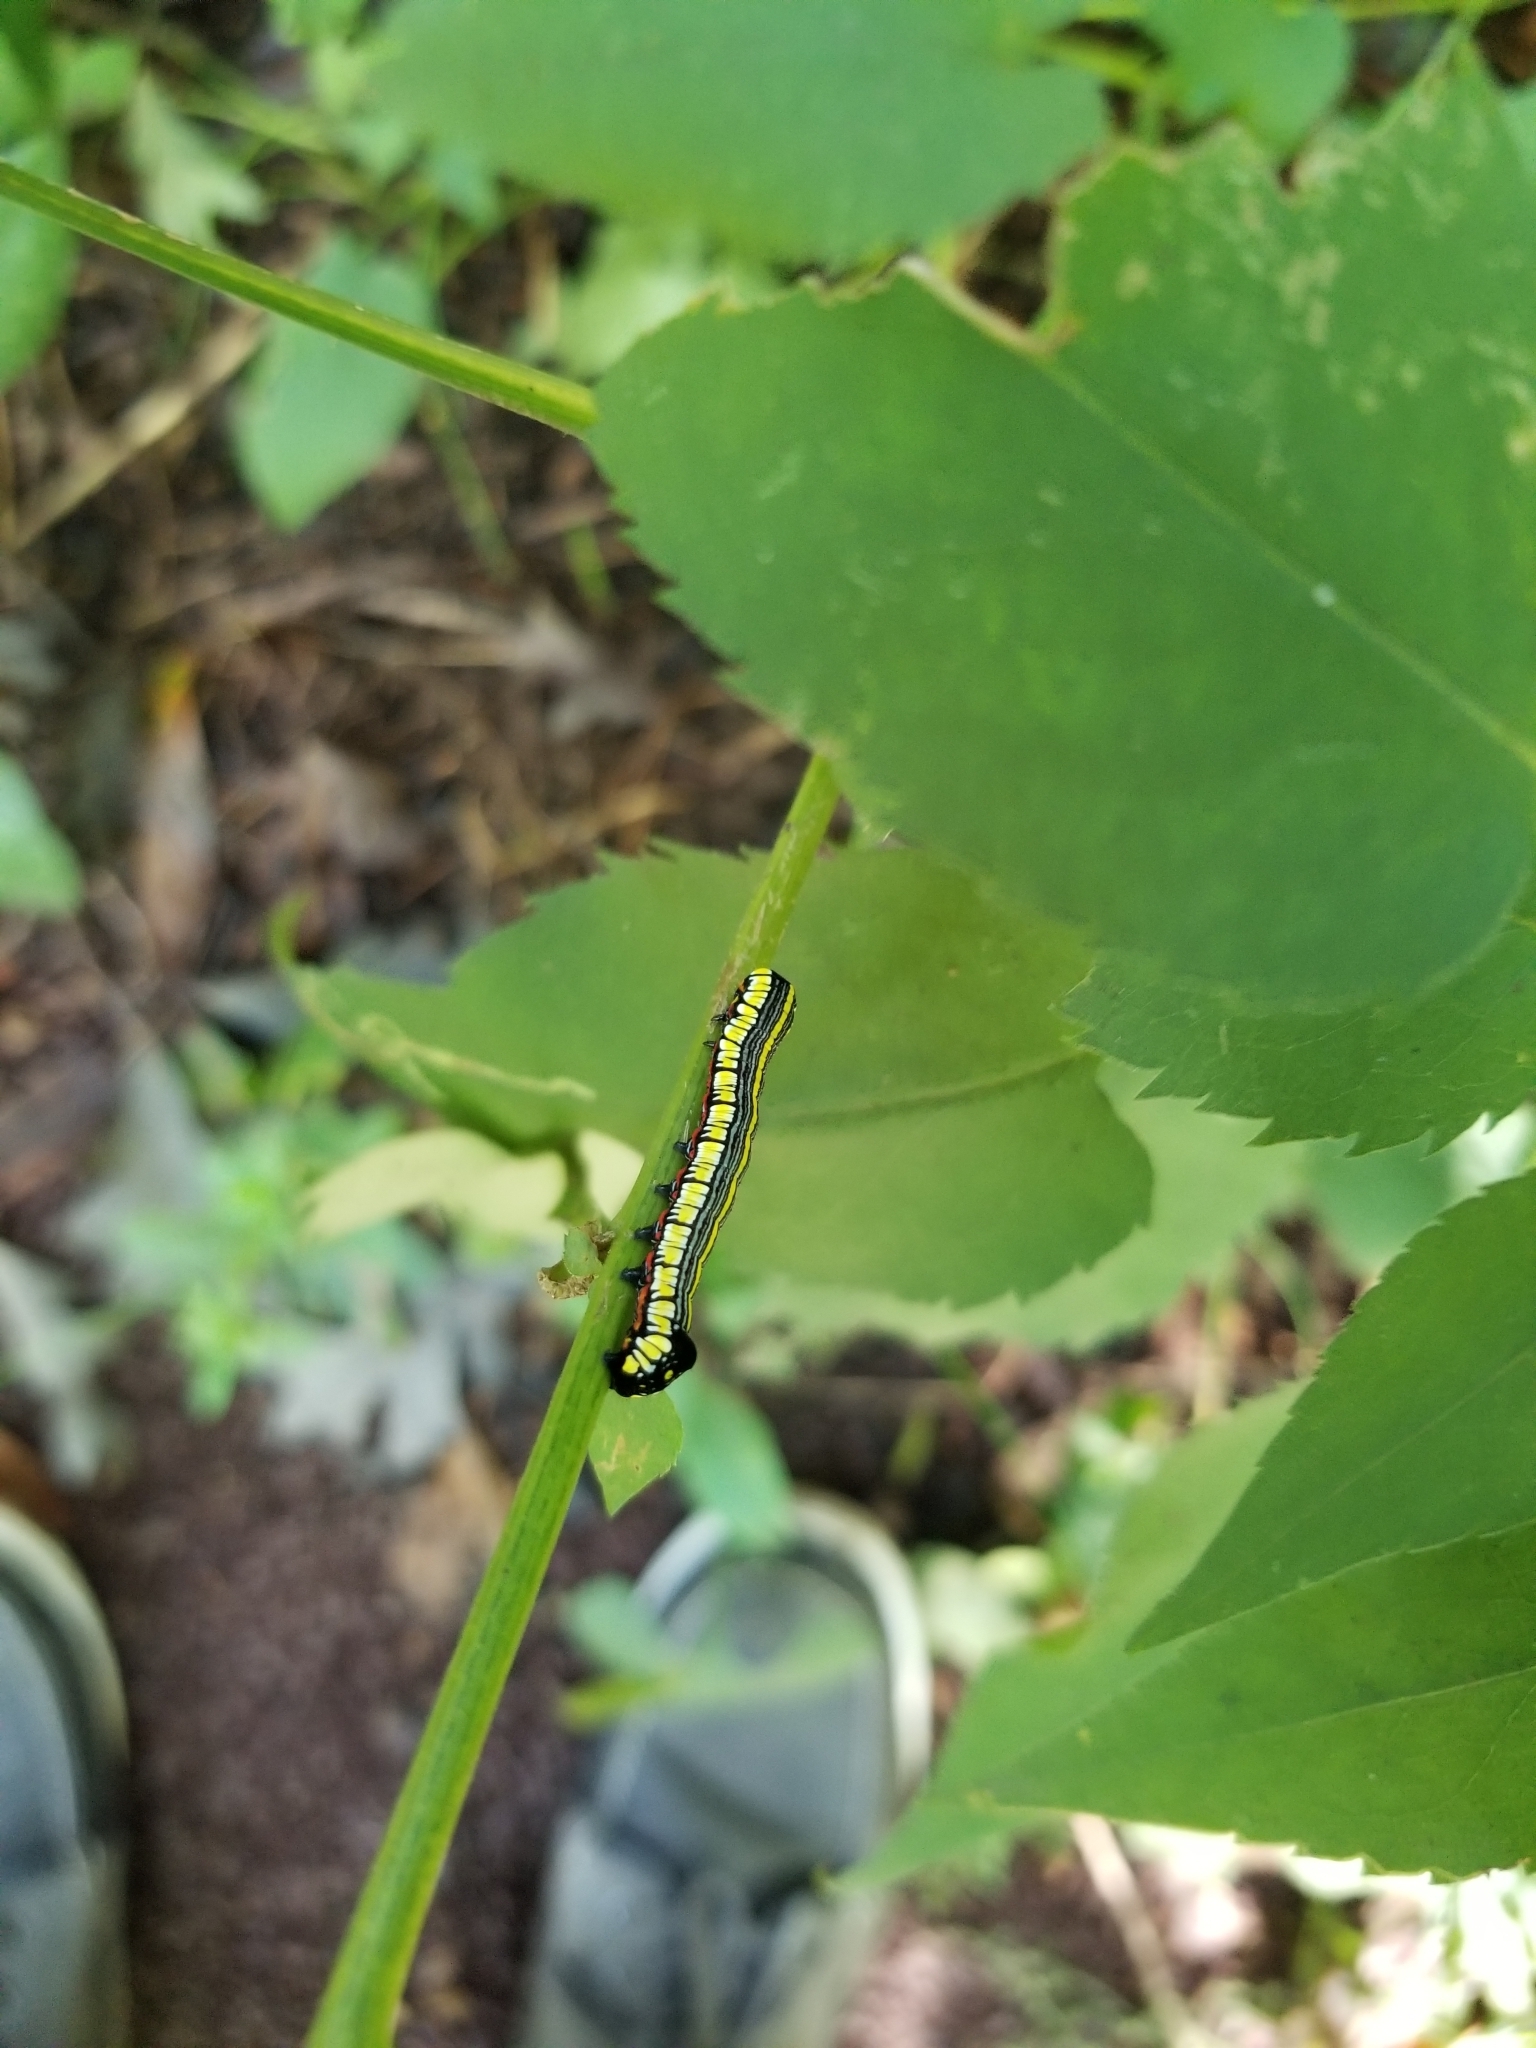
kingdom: Animalia
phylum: Arthropoda
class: Insecta
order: Lepidoptera
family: Noctuidae
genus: Cucullia
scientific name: Cucullia convexipennis
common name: Brown-hooded owlet
